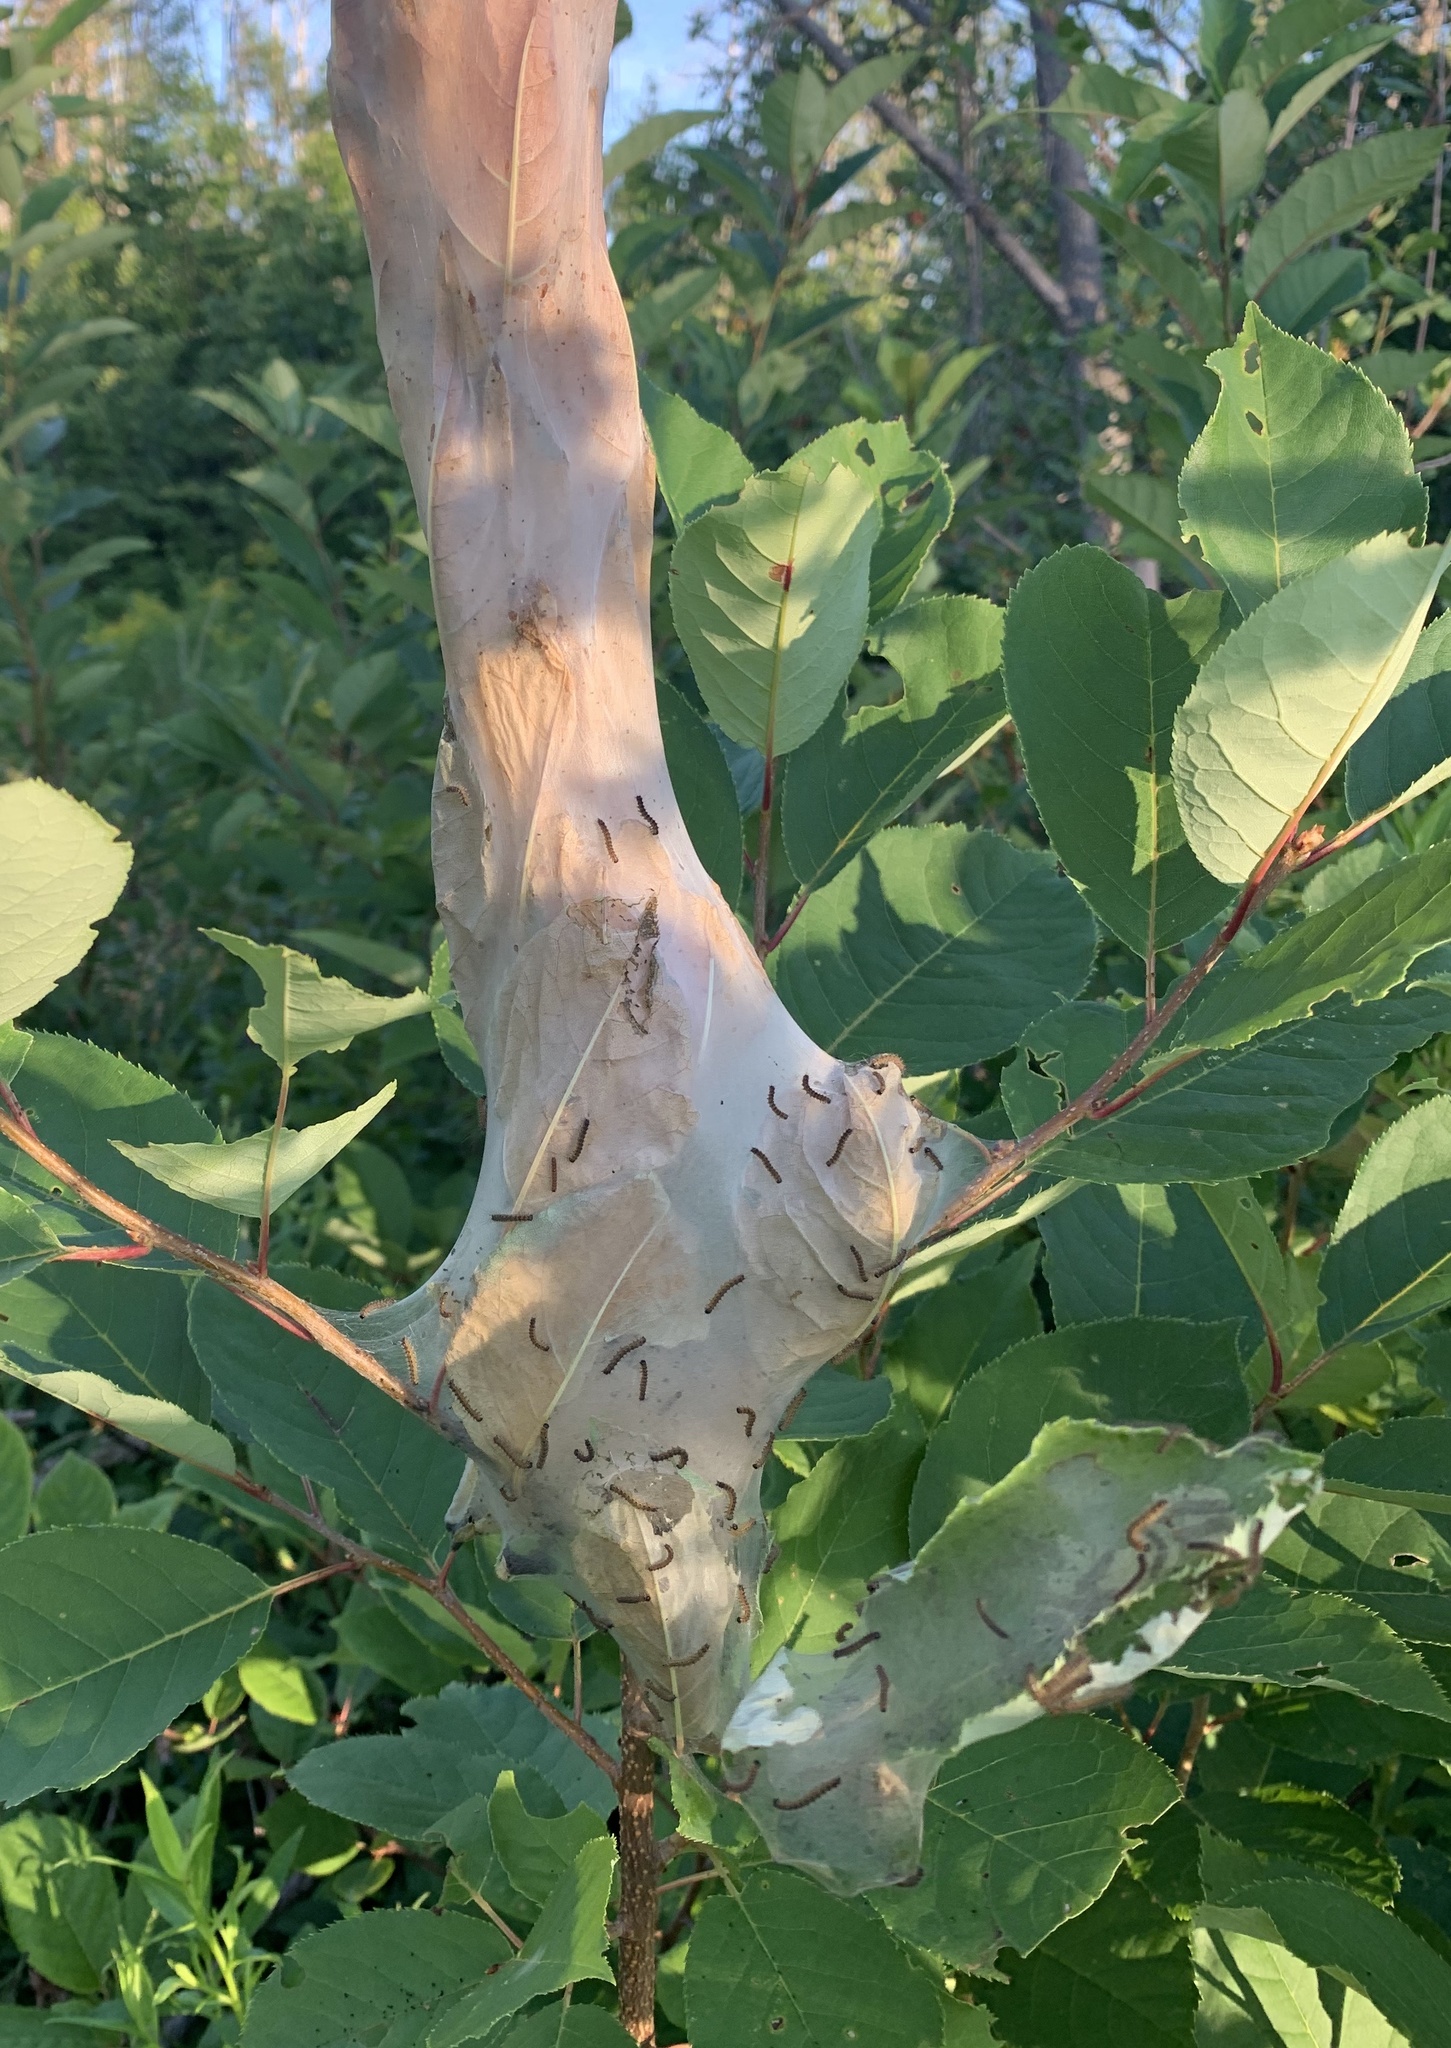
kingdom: Animalia
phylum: Arthropoda
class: Insecta
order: Lepidoptera
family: Erebidae
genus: Hyphantria
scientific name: Hyphantria cunea
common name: American white moth
